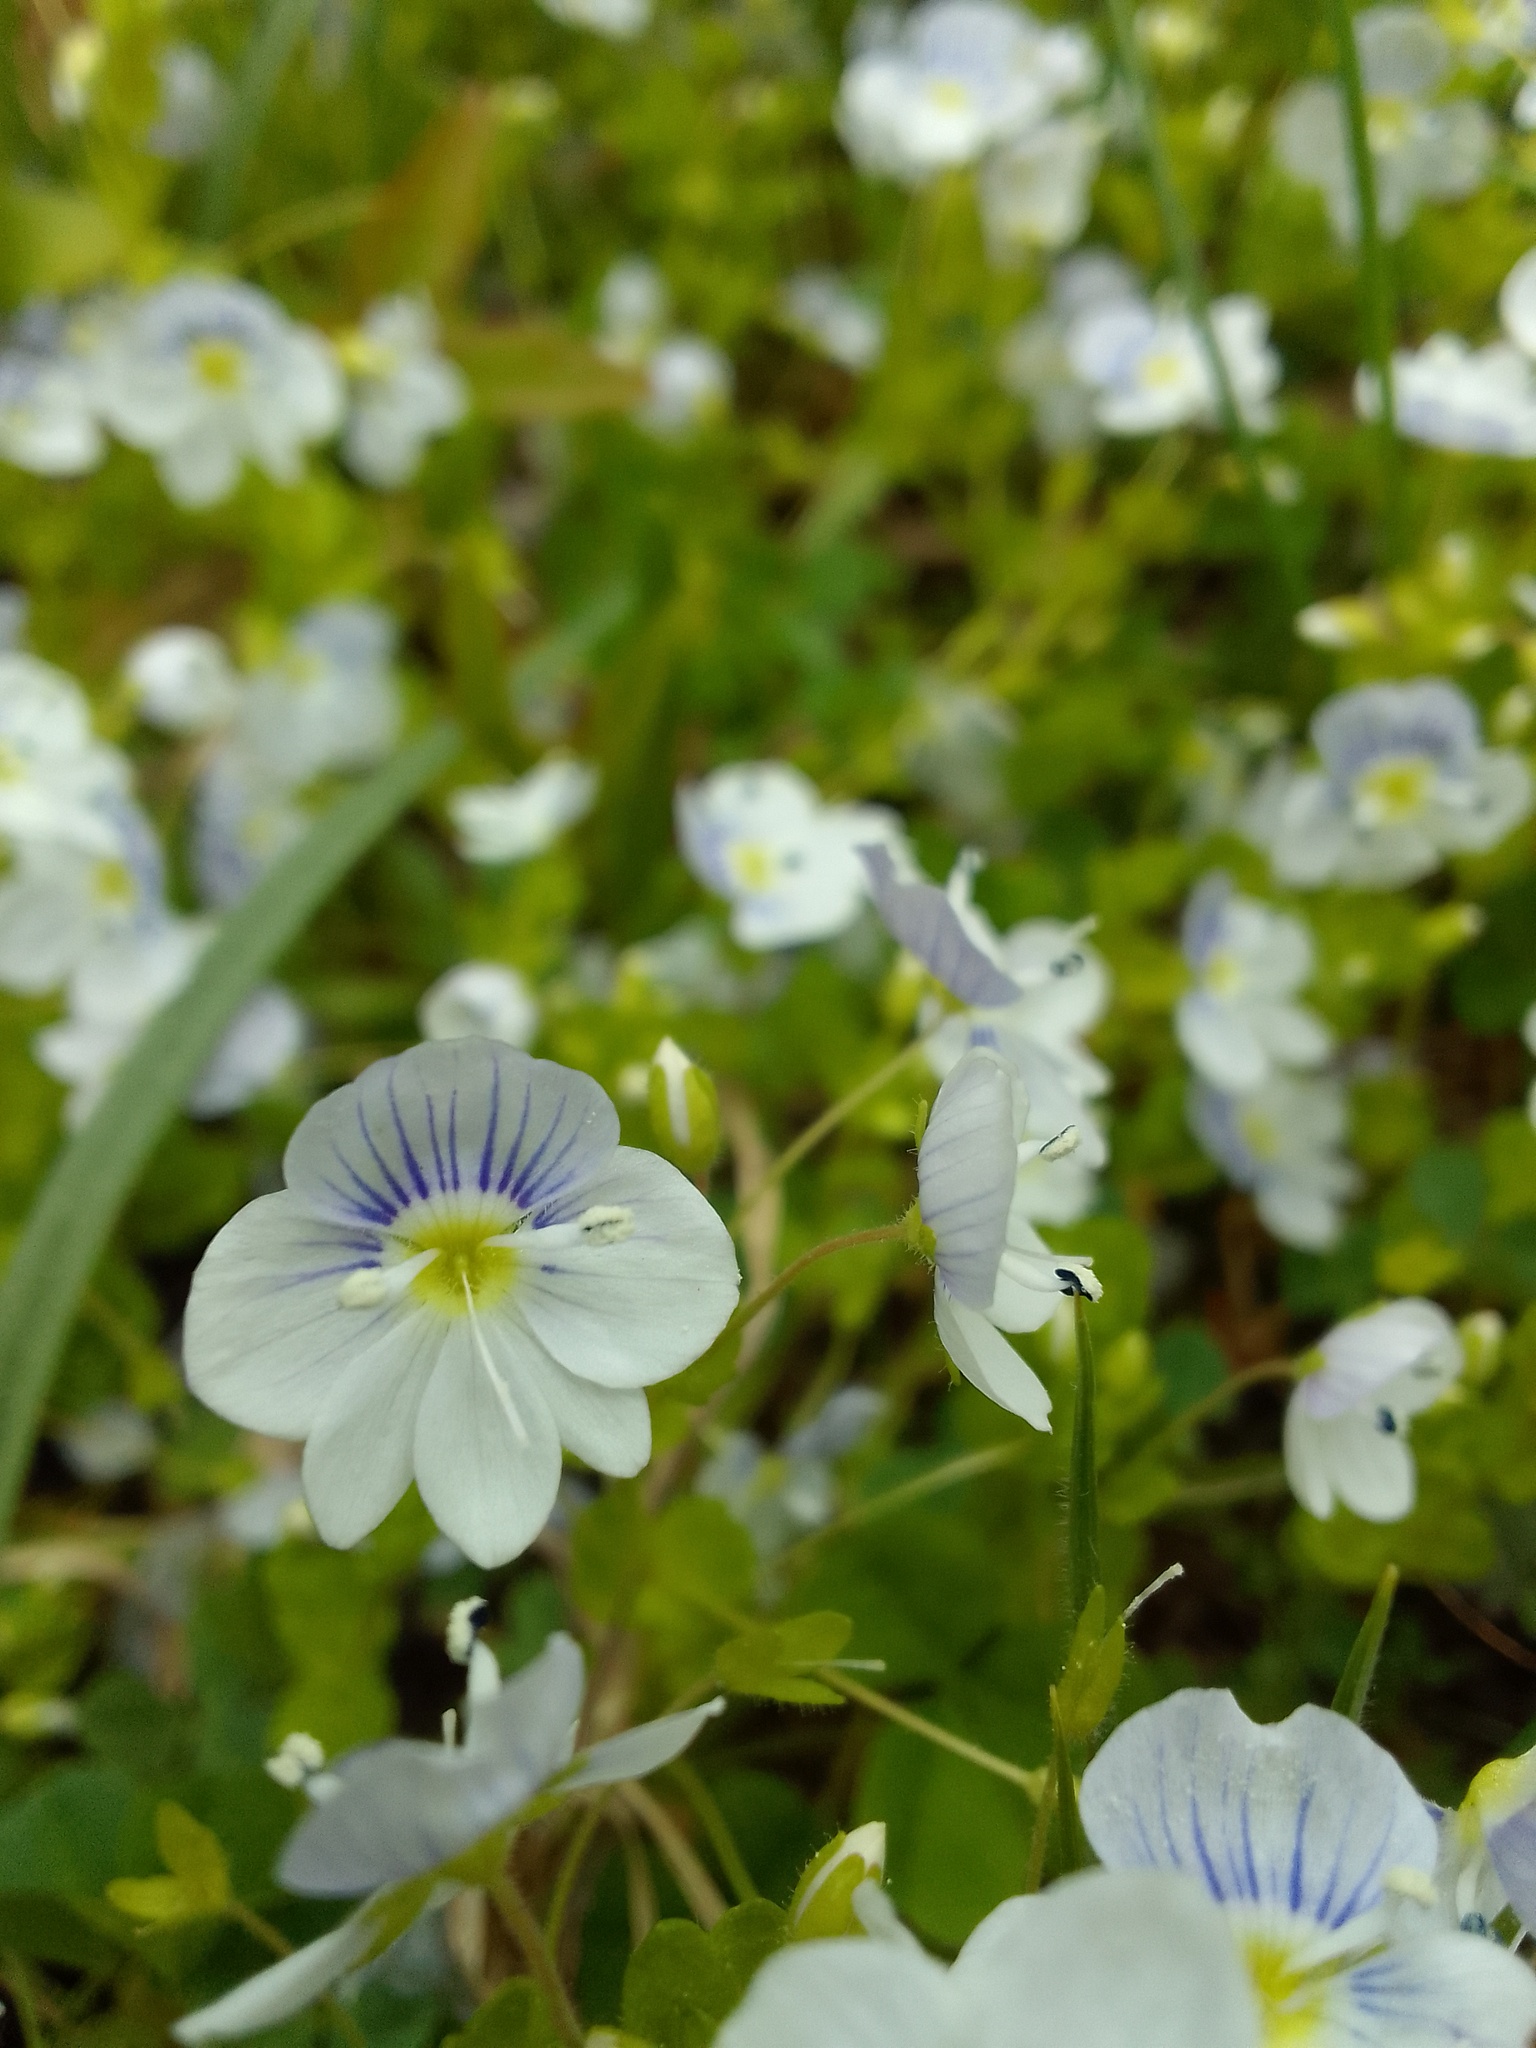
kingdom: Plantae
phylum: Tracheophyta
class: Magnoliopsida
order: Lamiales
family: Plantaginaceae
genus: Veronica
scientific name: Veronica filiformis
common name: Slender speedwell
